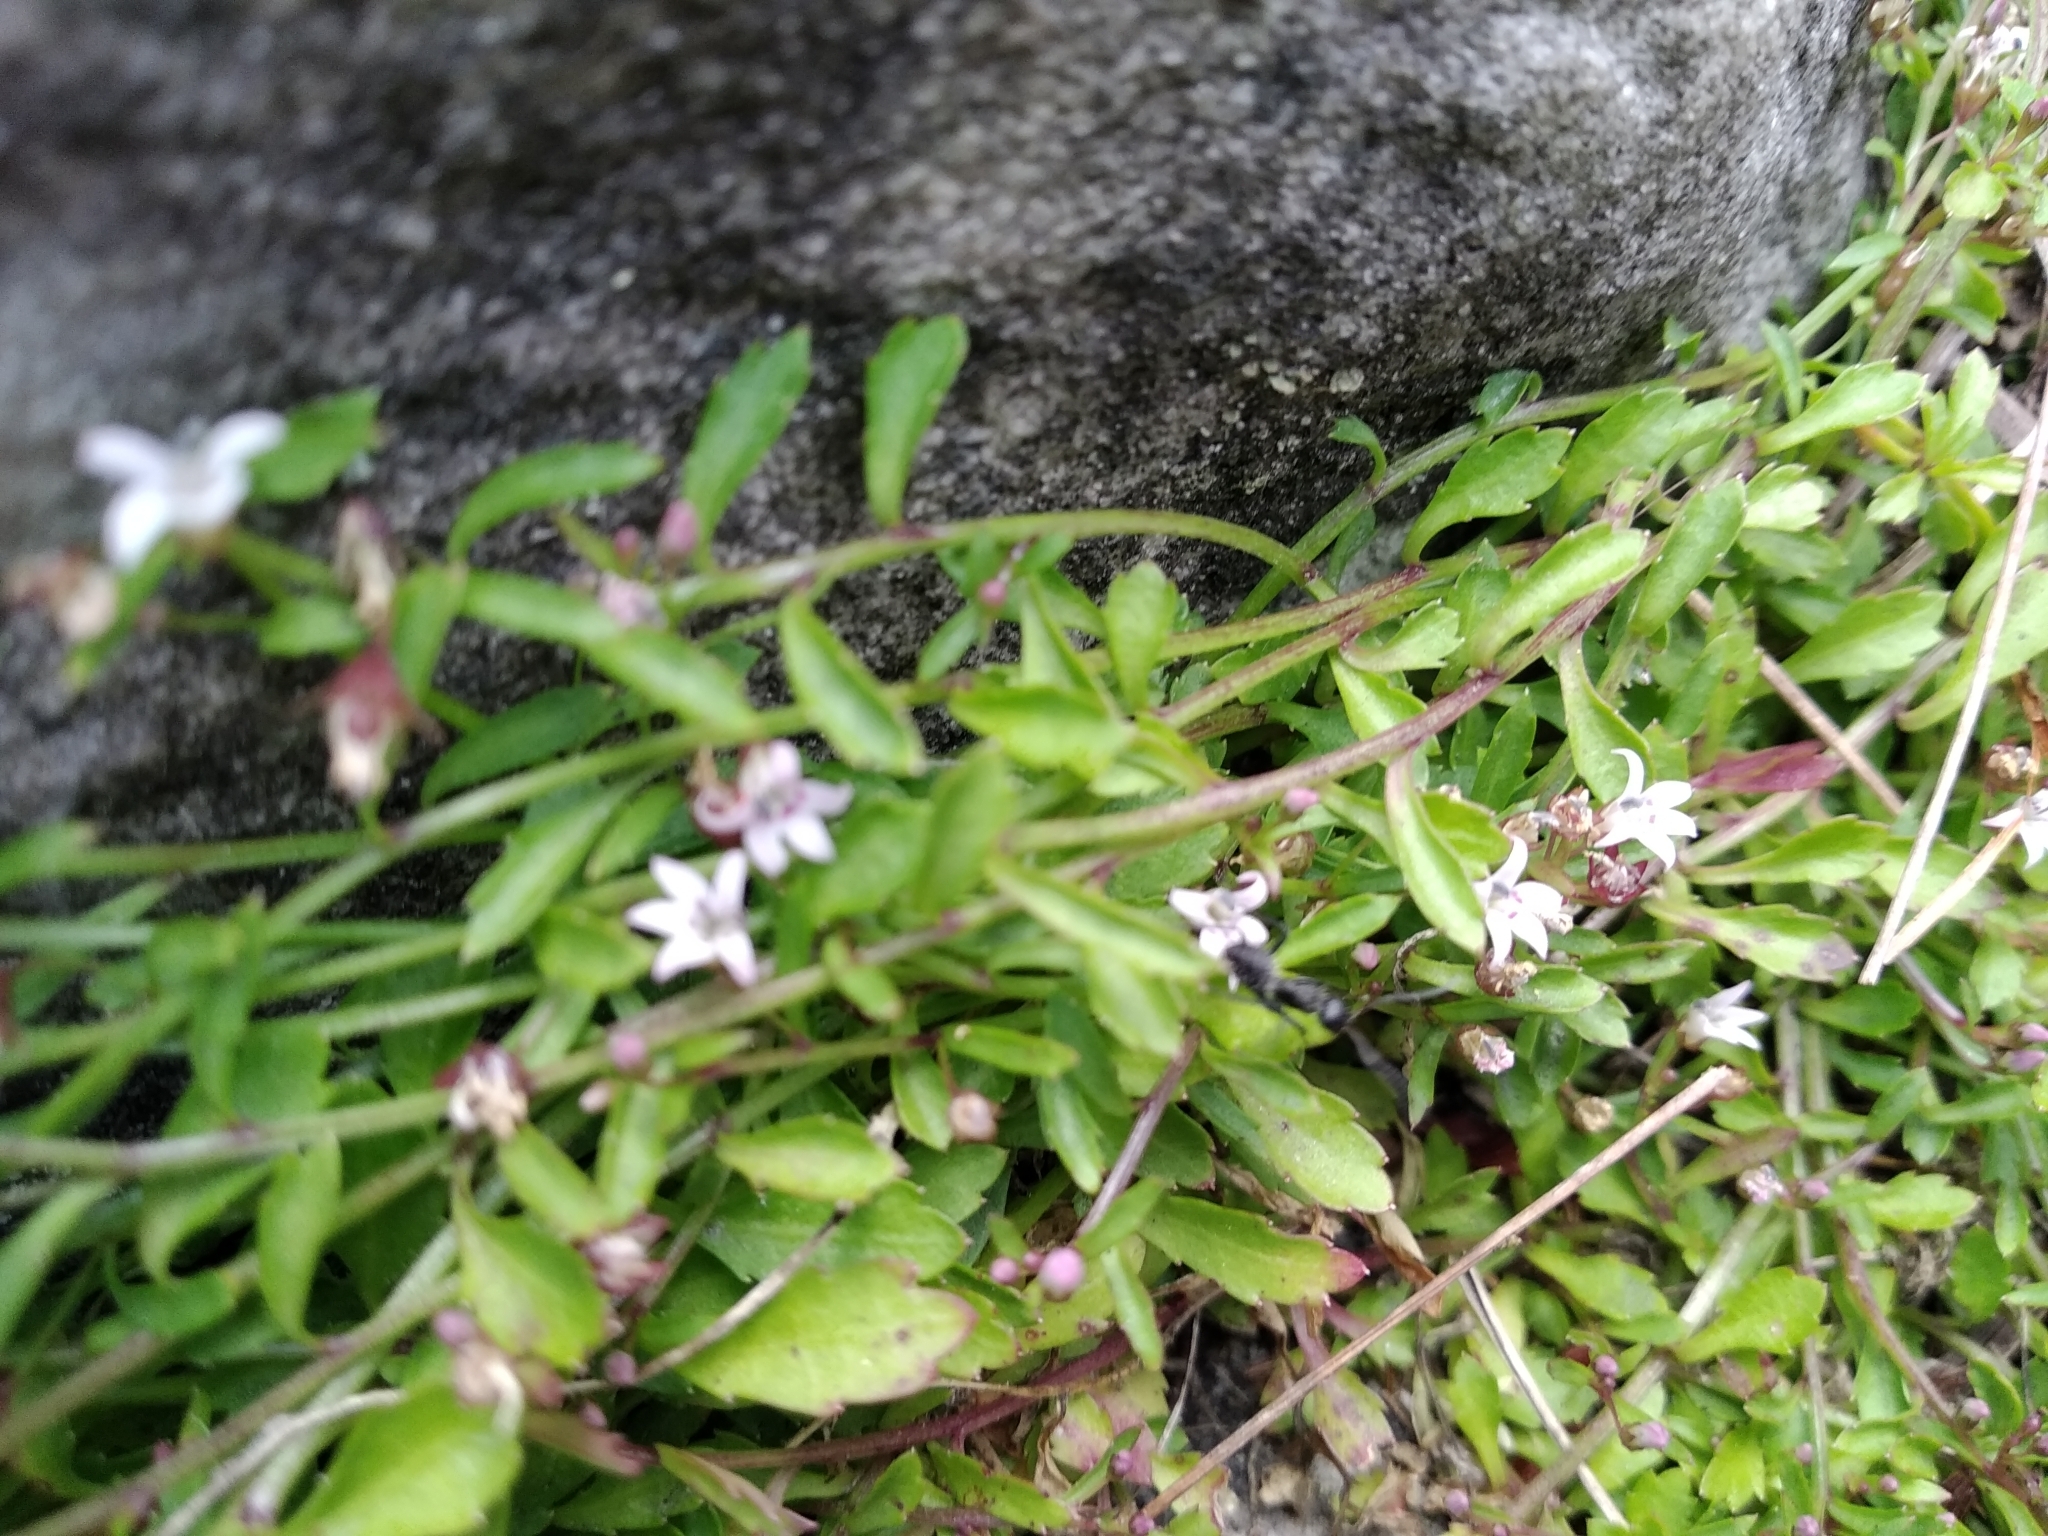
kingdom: Plantae
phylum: Tracheophyta
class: Magnoliopsida
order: Asterales
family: Campanulaceae
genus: Lobelia
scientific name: Lobelia eckloniana
